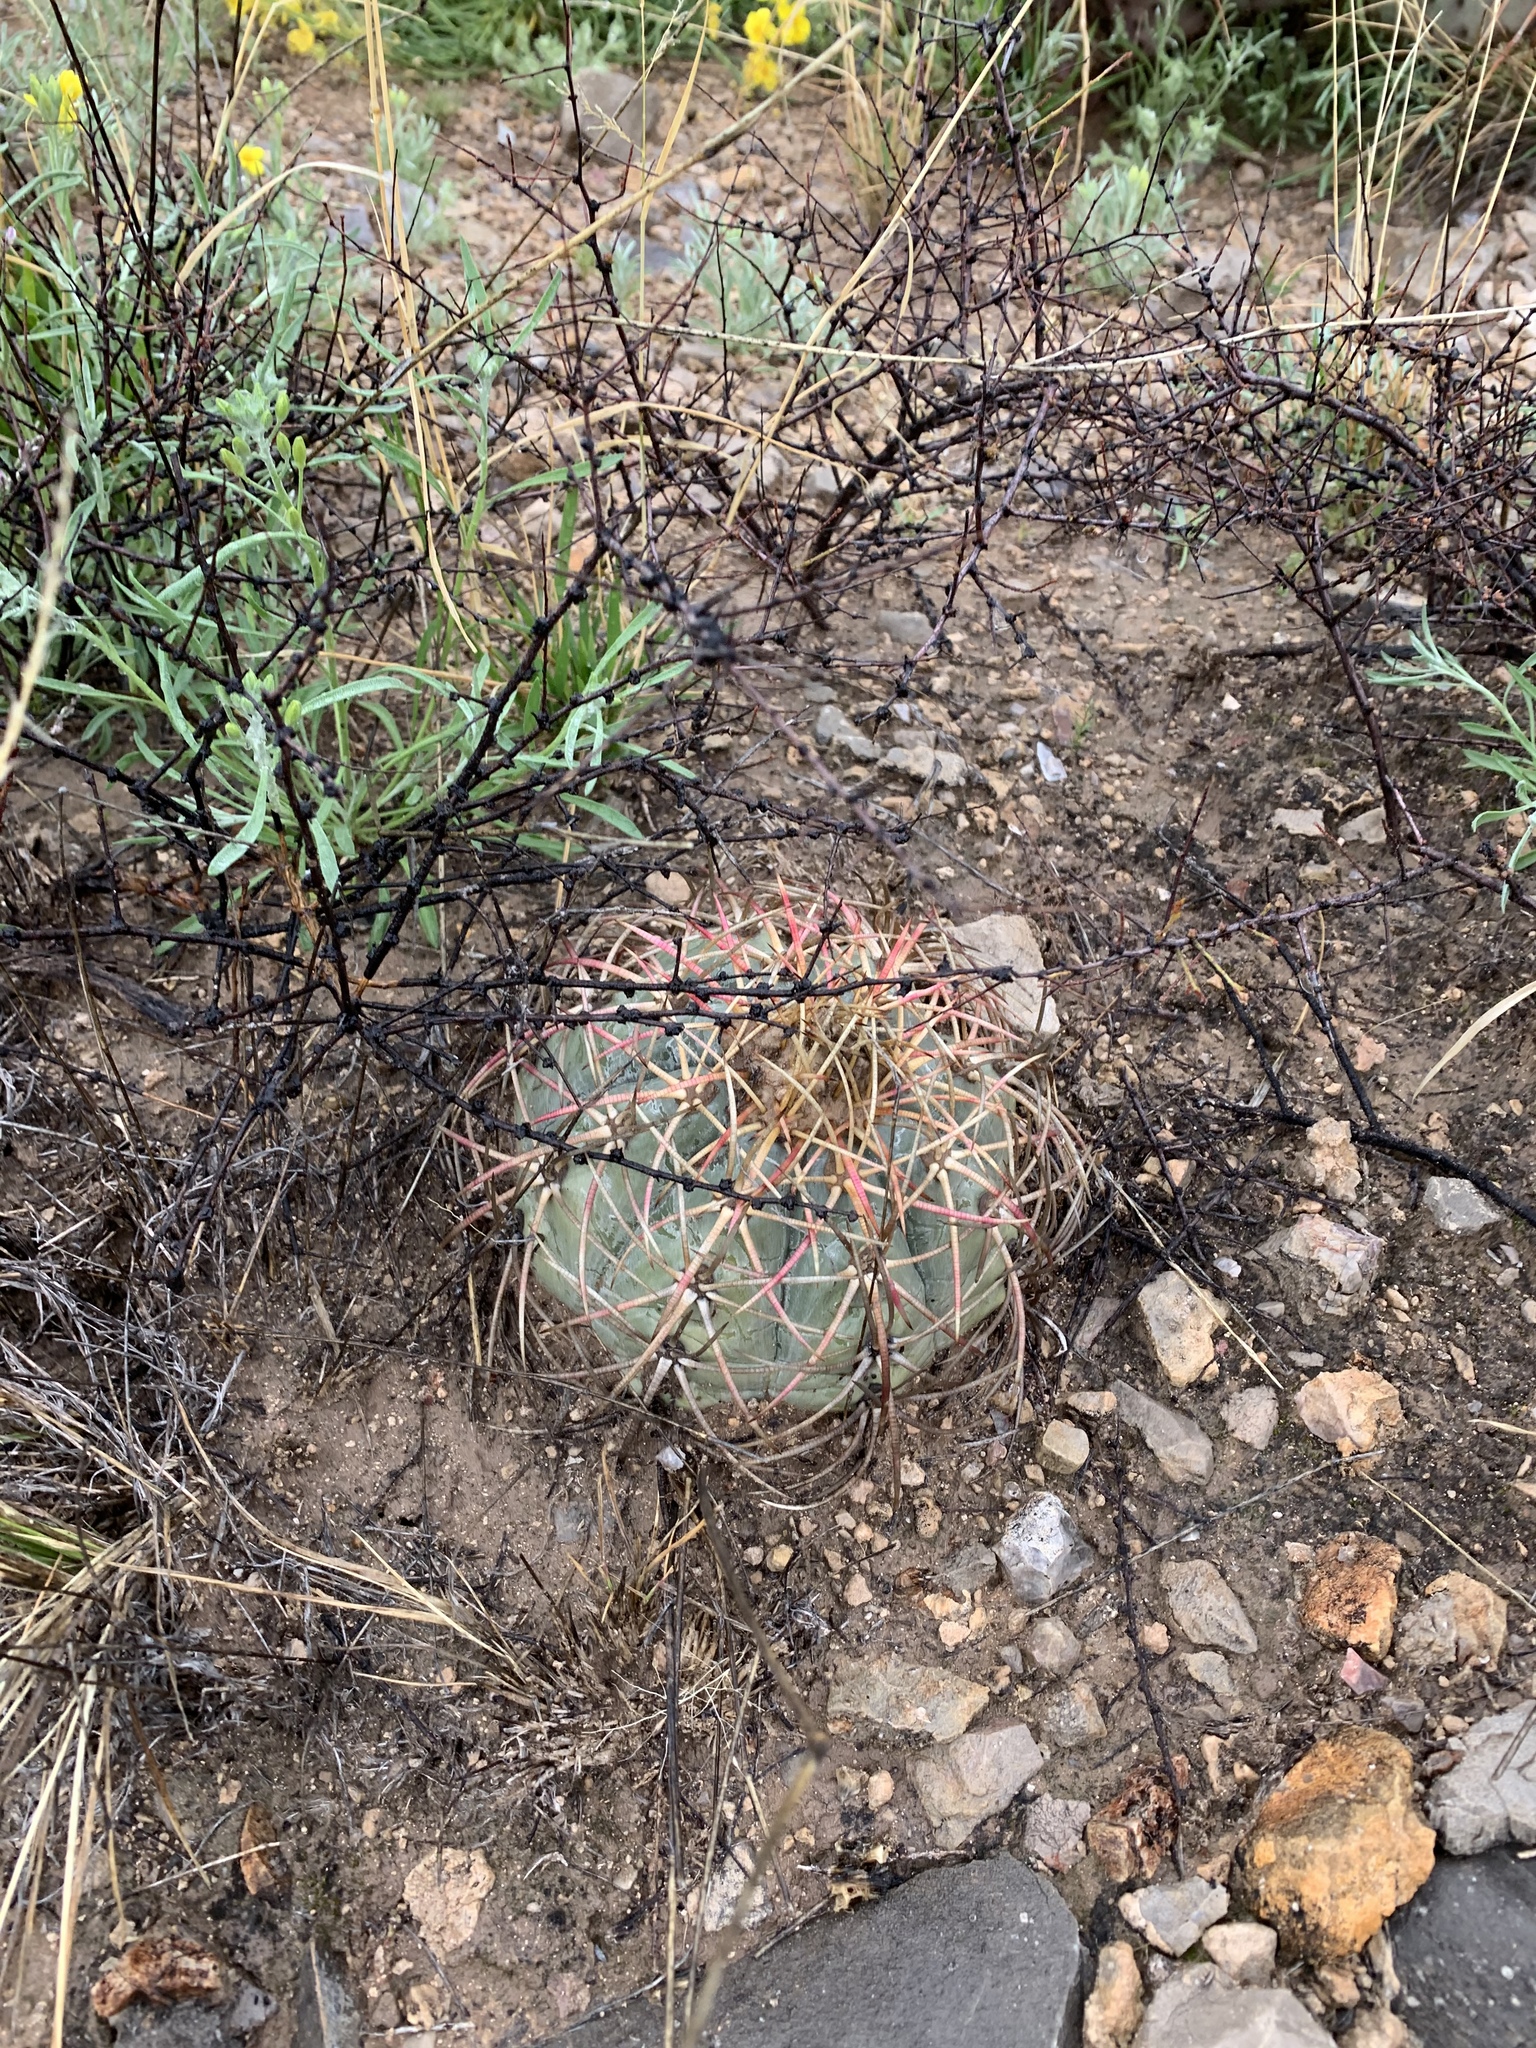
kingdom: Plantae
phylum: Tracheophyta
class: Magnoliopsida
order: Caryophyllales
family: Cactaceae
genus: Echinocactus
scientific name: Echinocactus horizonthalonius
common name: Devilshead
